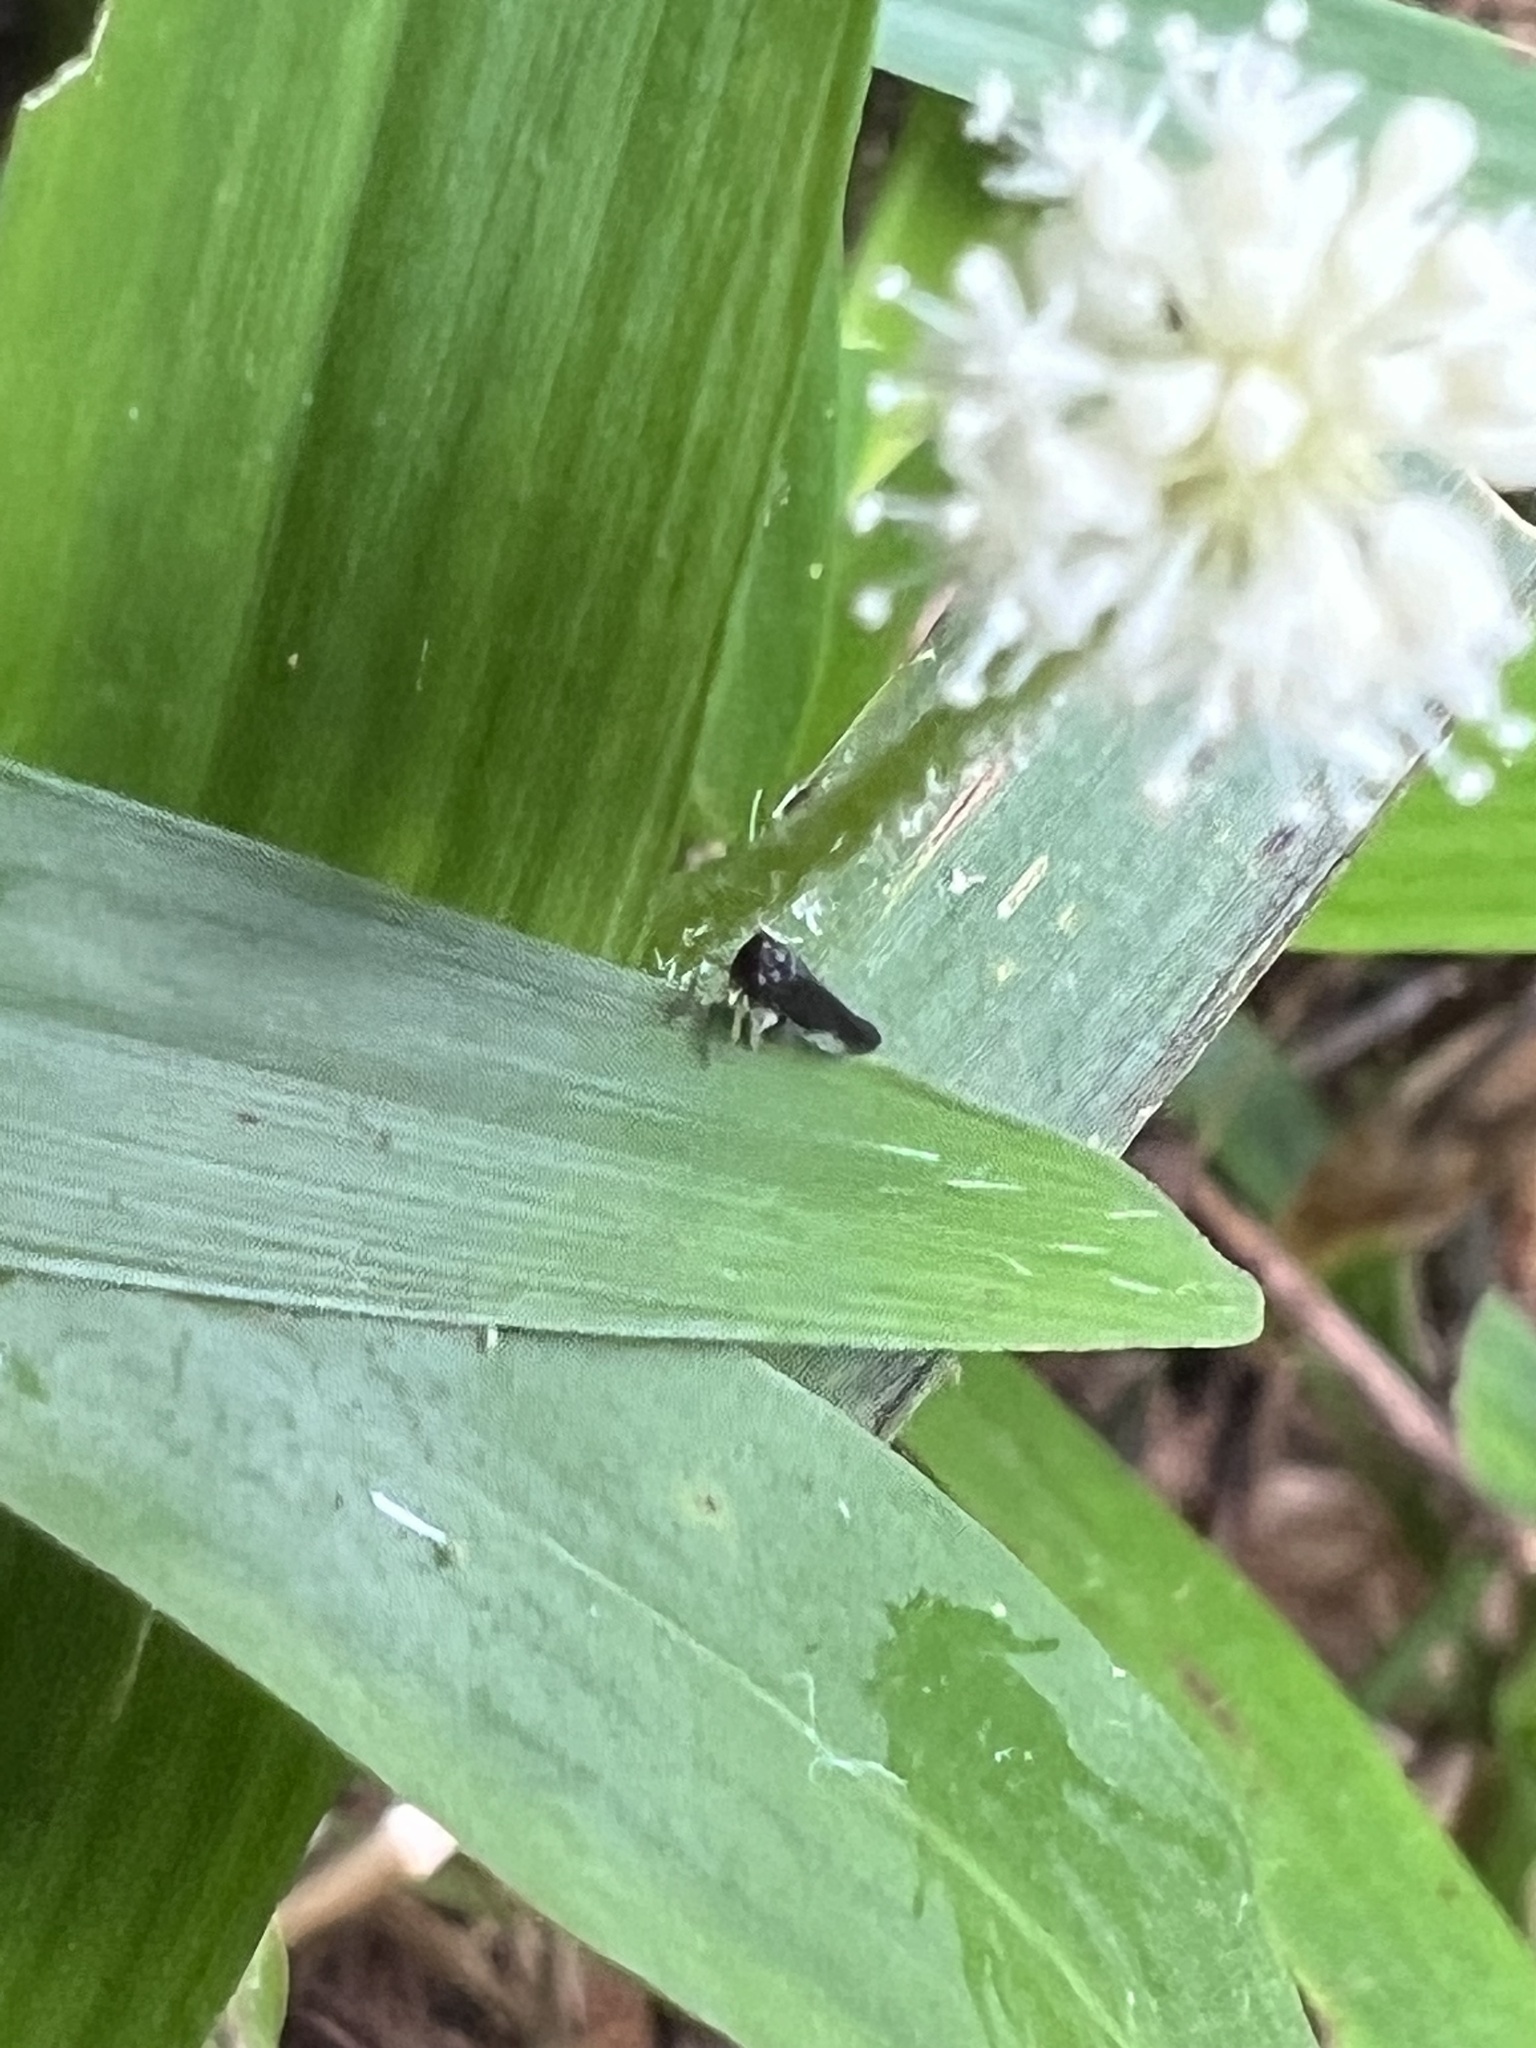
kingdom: Animalia
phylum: Arthropoda
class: Insecta
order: Hemiptera
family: Delphacidae
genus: Caenodelphax
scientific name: Caenodelphax teapae
